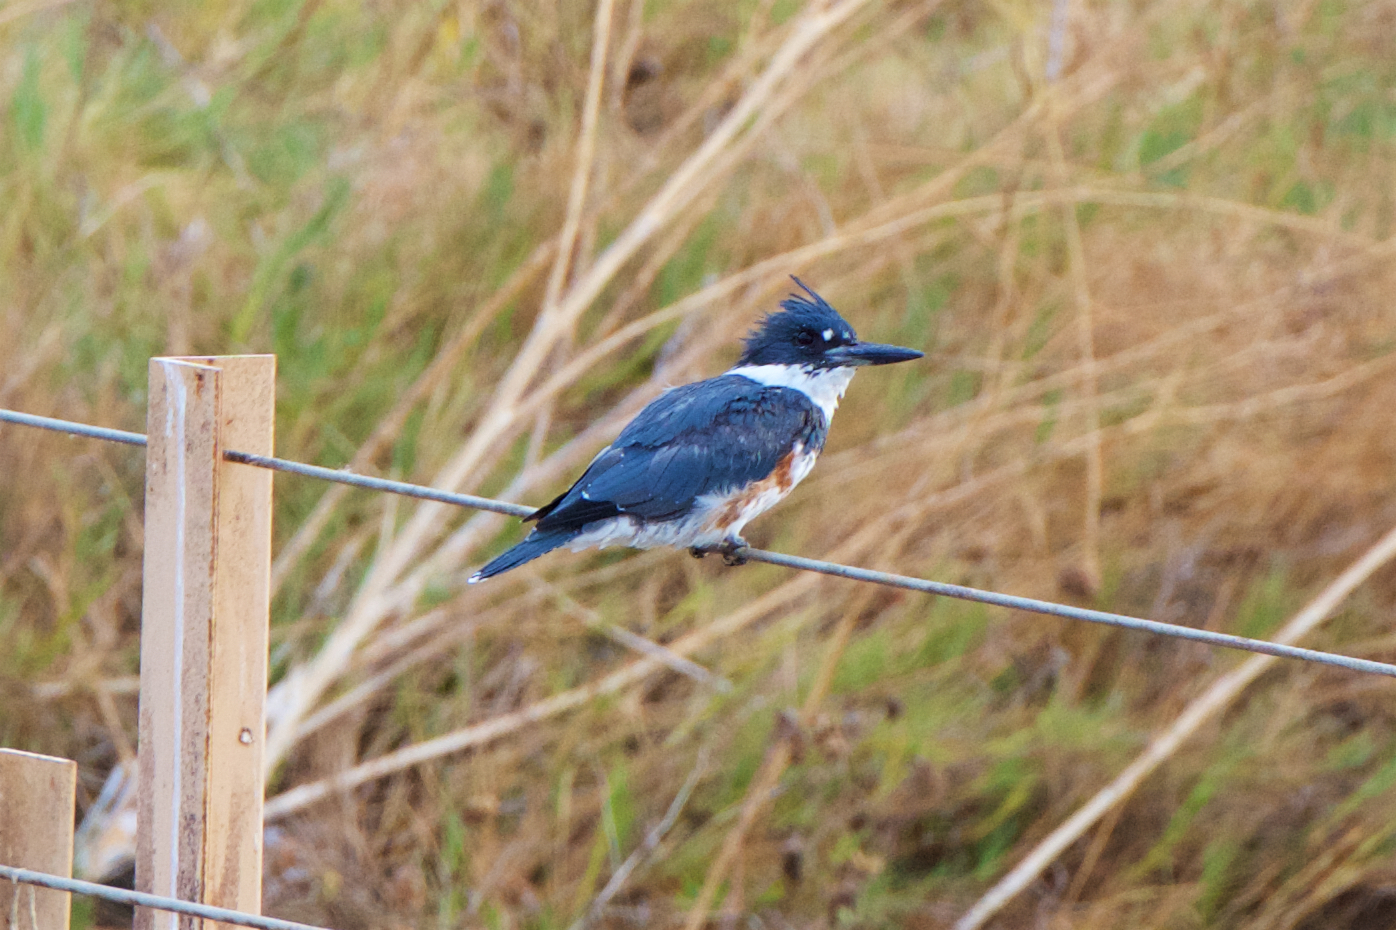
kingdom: Animalia
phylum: Chordata
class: Aves
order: Coraciiformes
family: Alcedinidae
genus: Megaceryle
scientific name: Megaceryle alcyon
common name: Belted kingfisher
